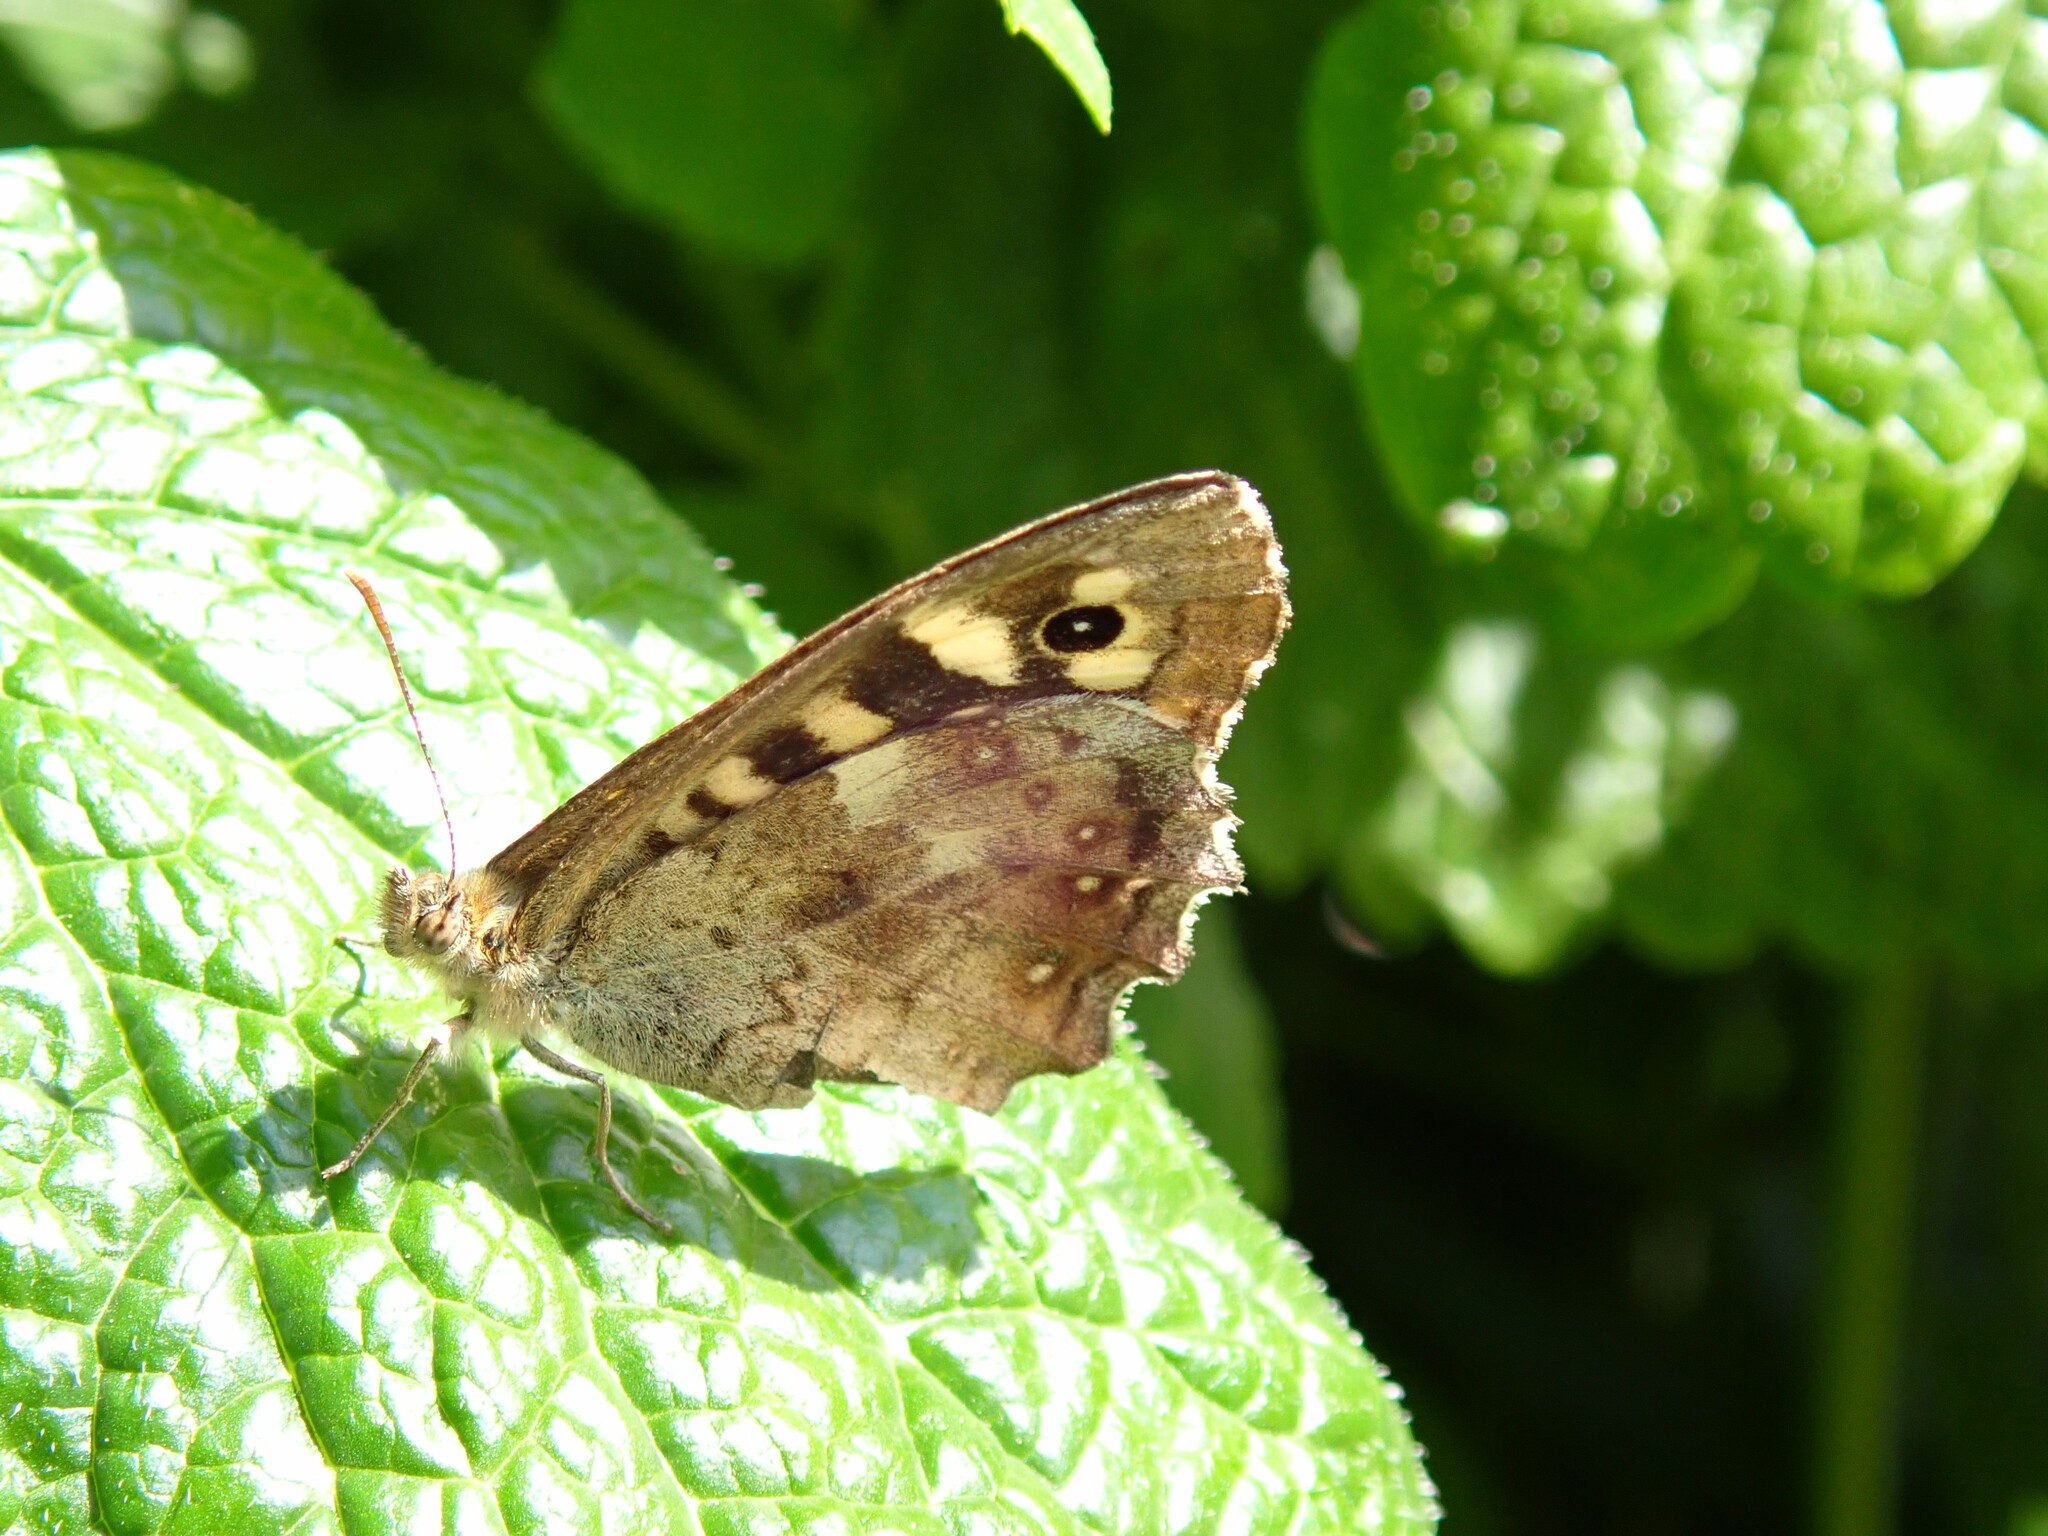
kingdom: Animalia
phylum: Arthropoda
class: Insecta
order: Lepidoptera
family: Nymphalidae
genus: Pararge
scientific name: Pararge aegeria
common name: Speckled wood
